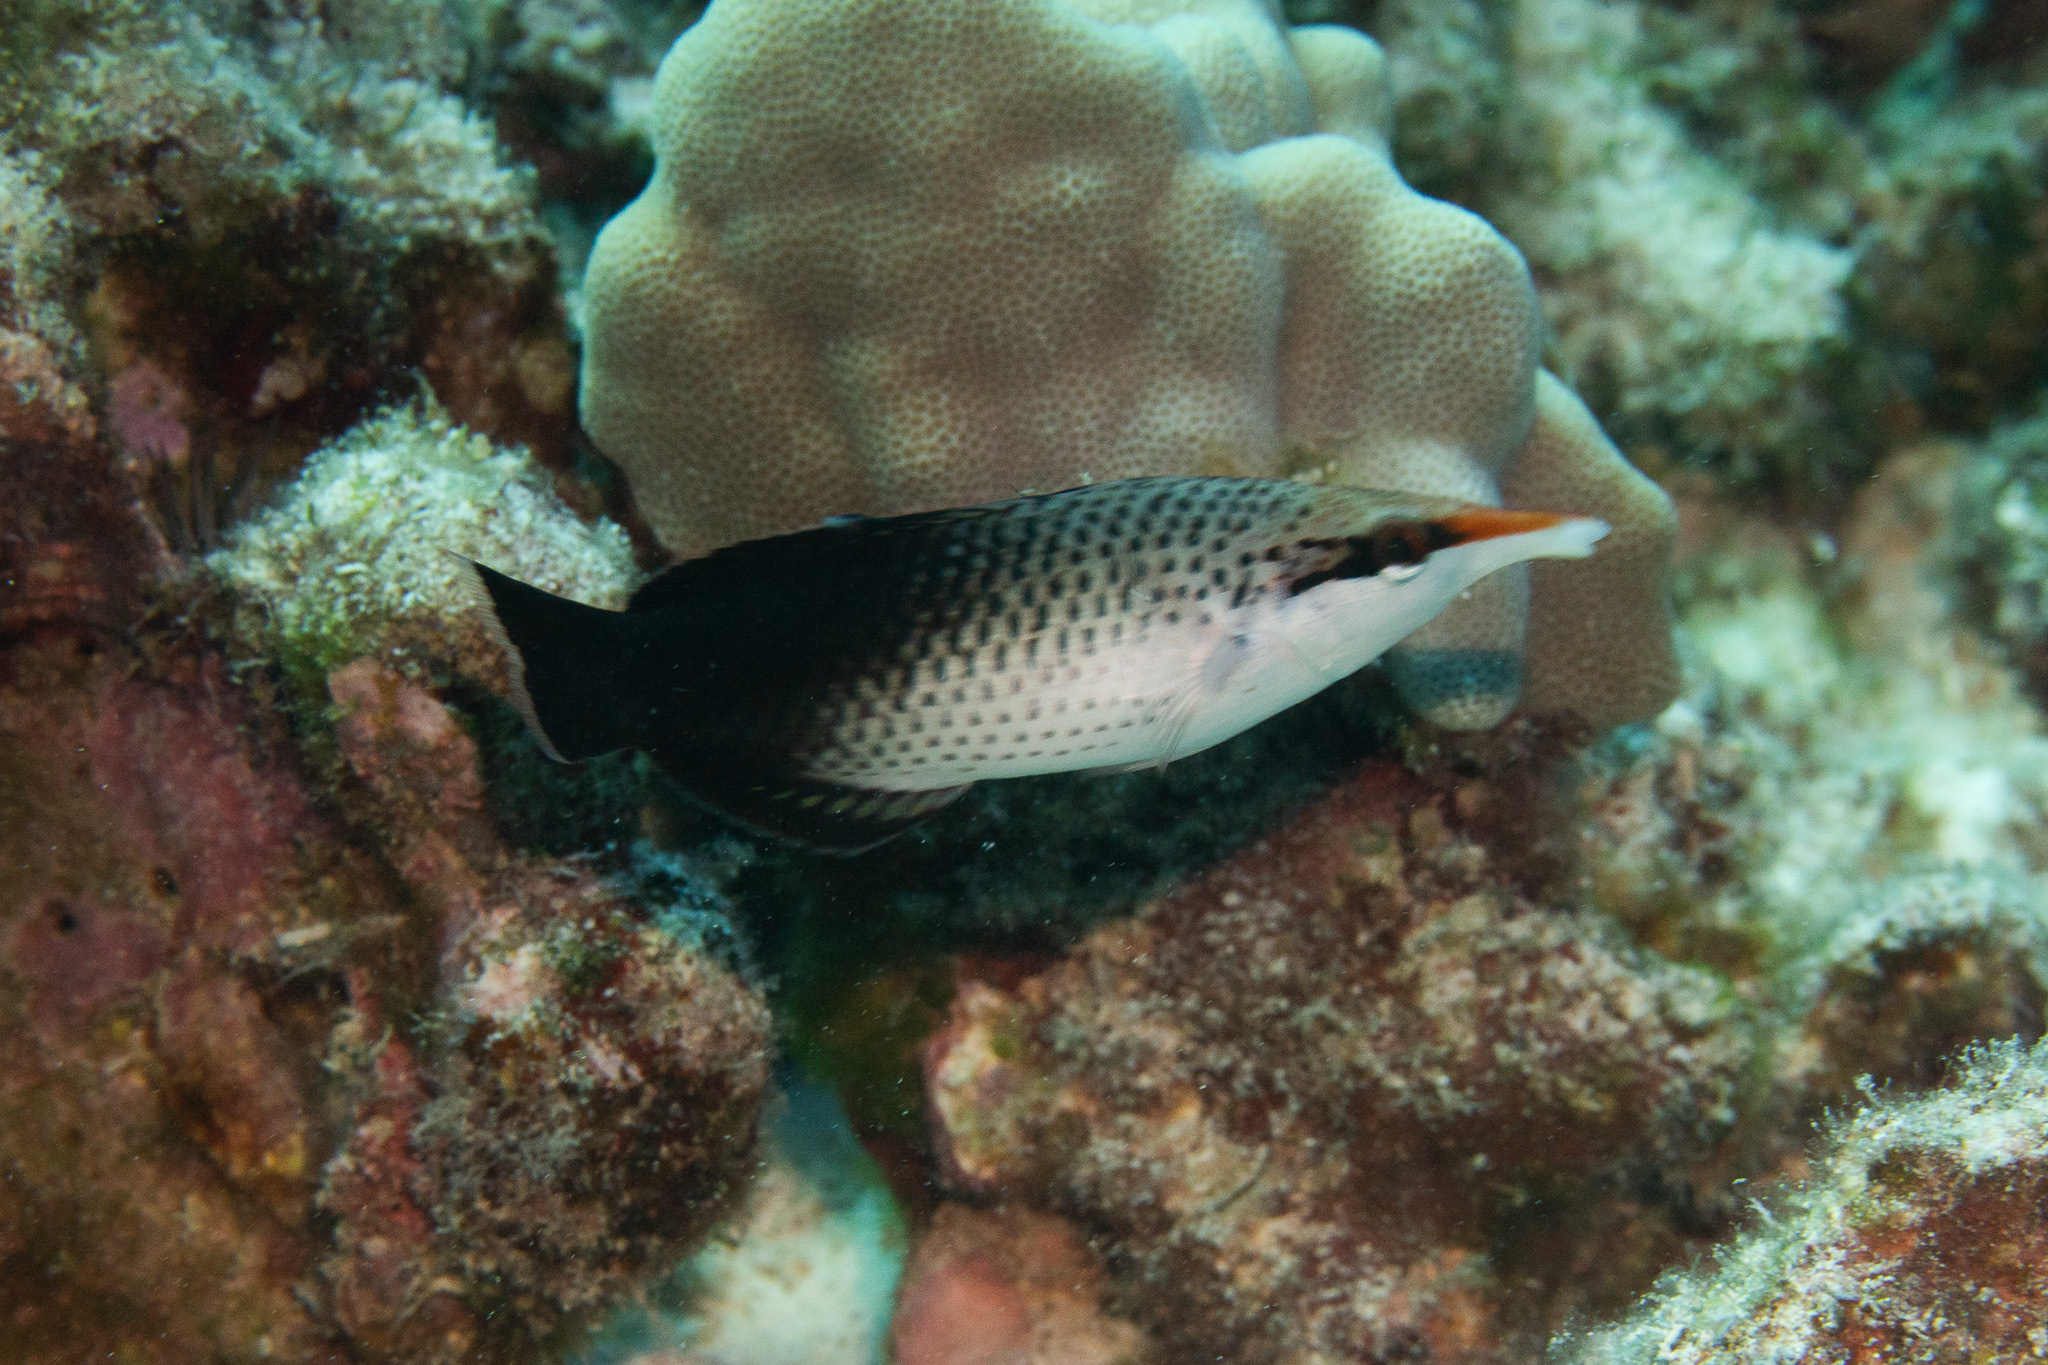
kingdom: Animalia
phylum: Chordata
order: Perciformes
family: Labridae
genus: Gomphosus
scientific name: Gomphosus varius
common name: Bird wrasse
